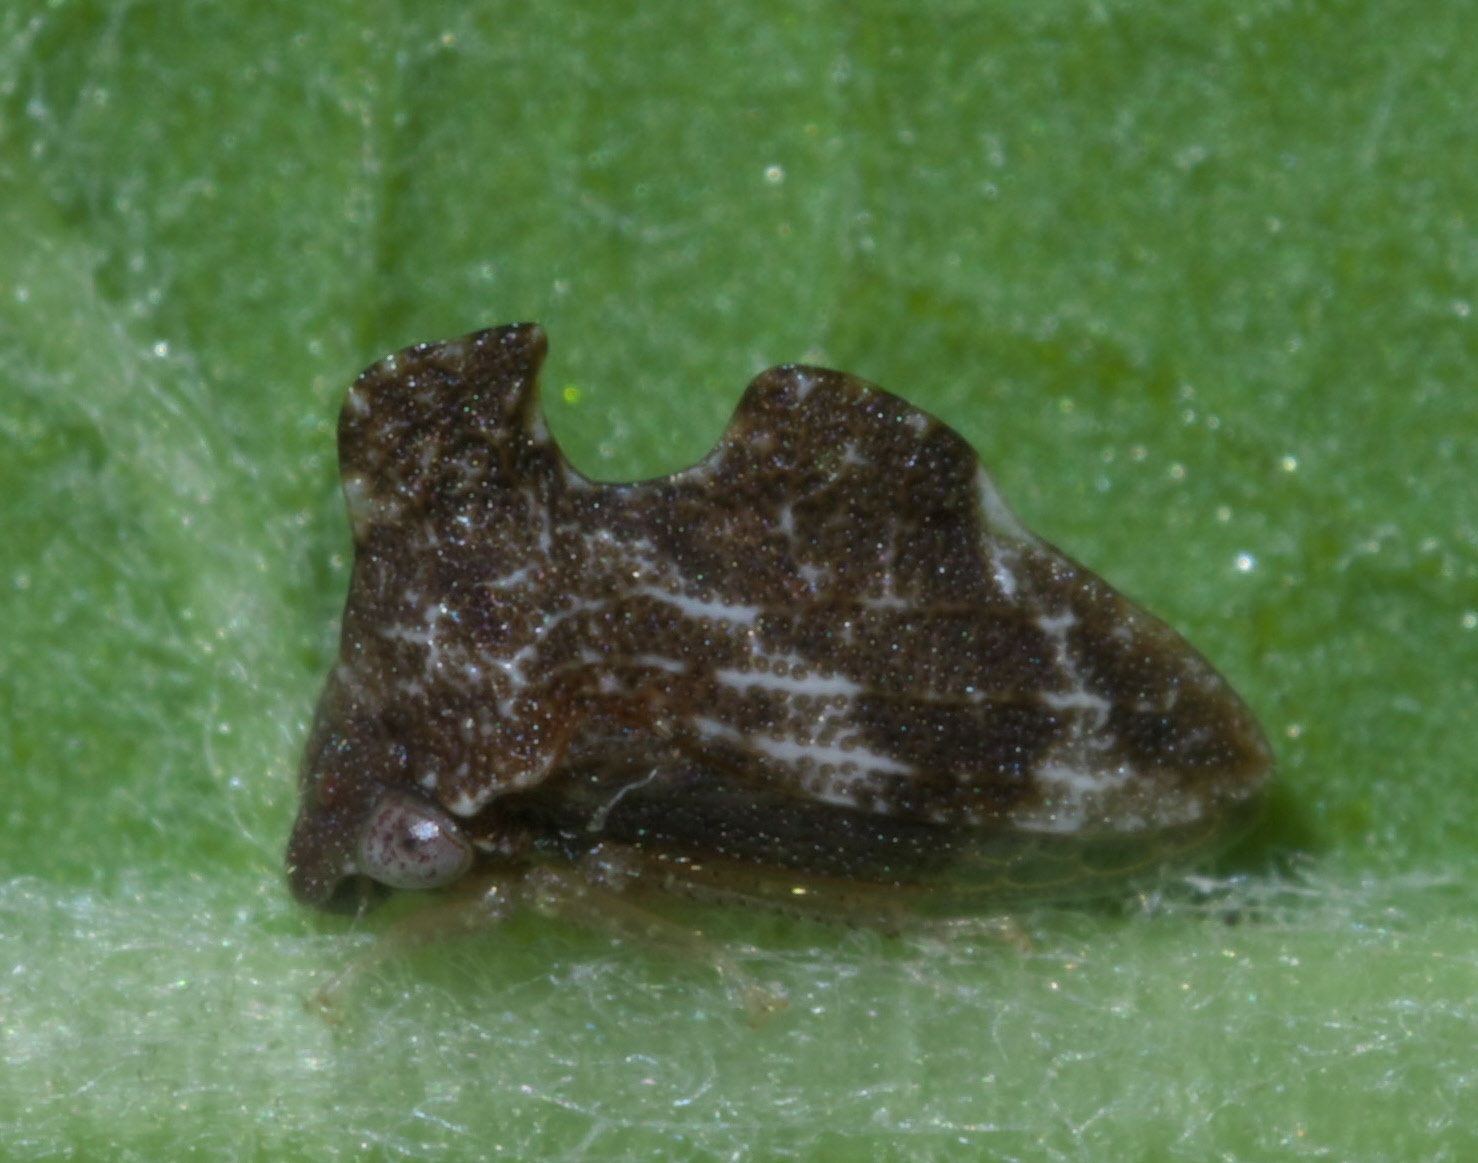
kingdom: Animalia
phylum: Arthropoda
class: Insecta
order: Hemiptera
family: Membracidae
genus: Entylia
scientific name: Entylia carinata
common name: Keeled treehopper
